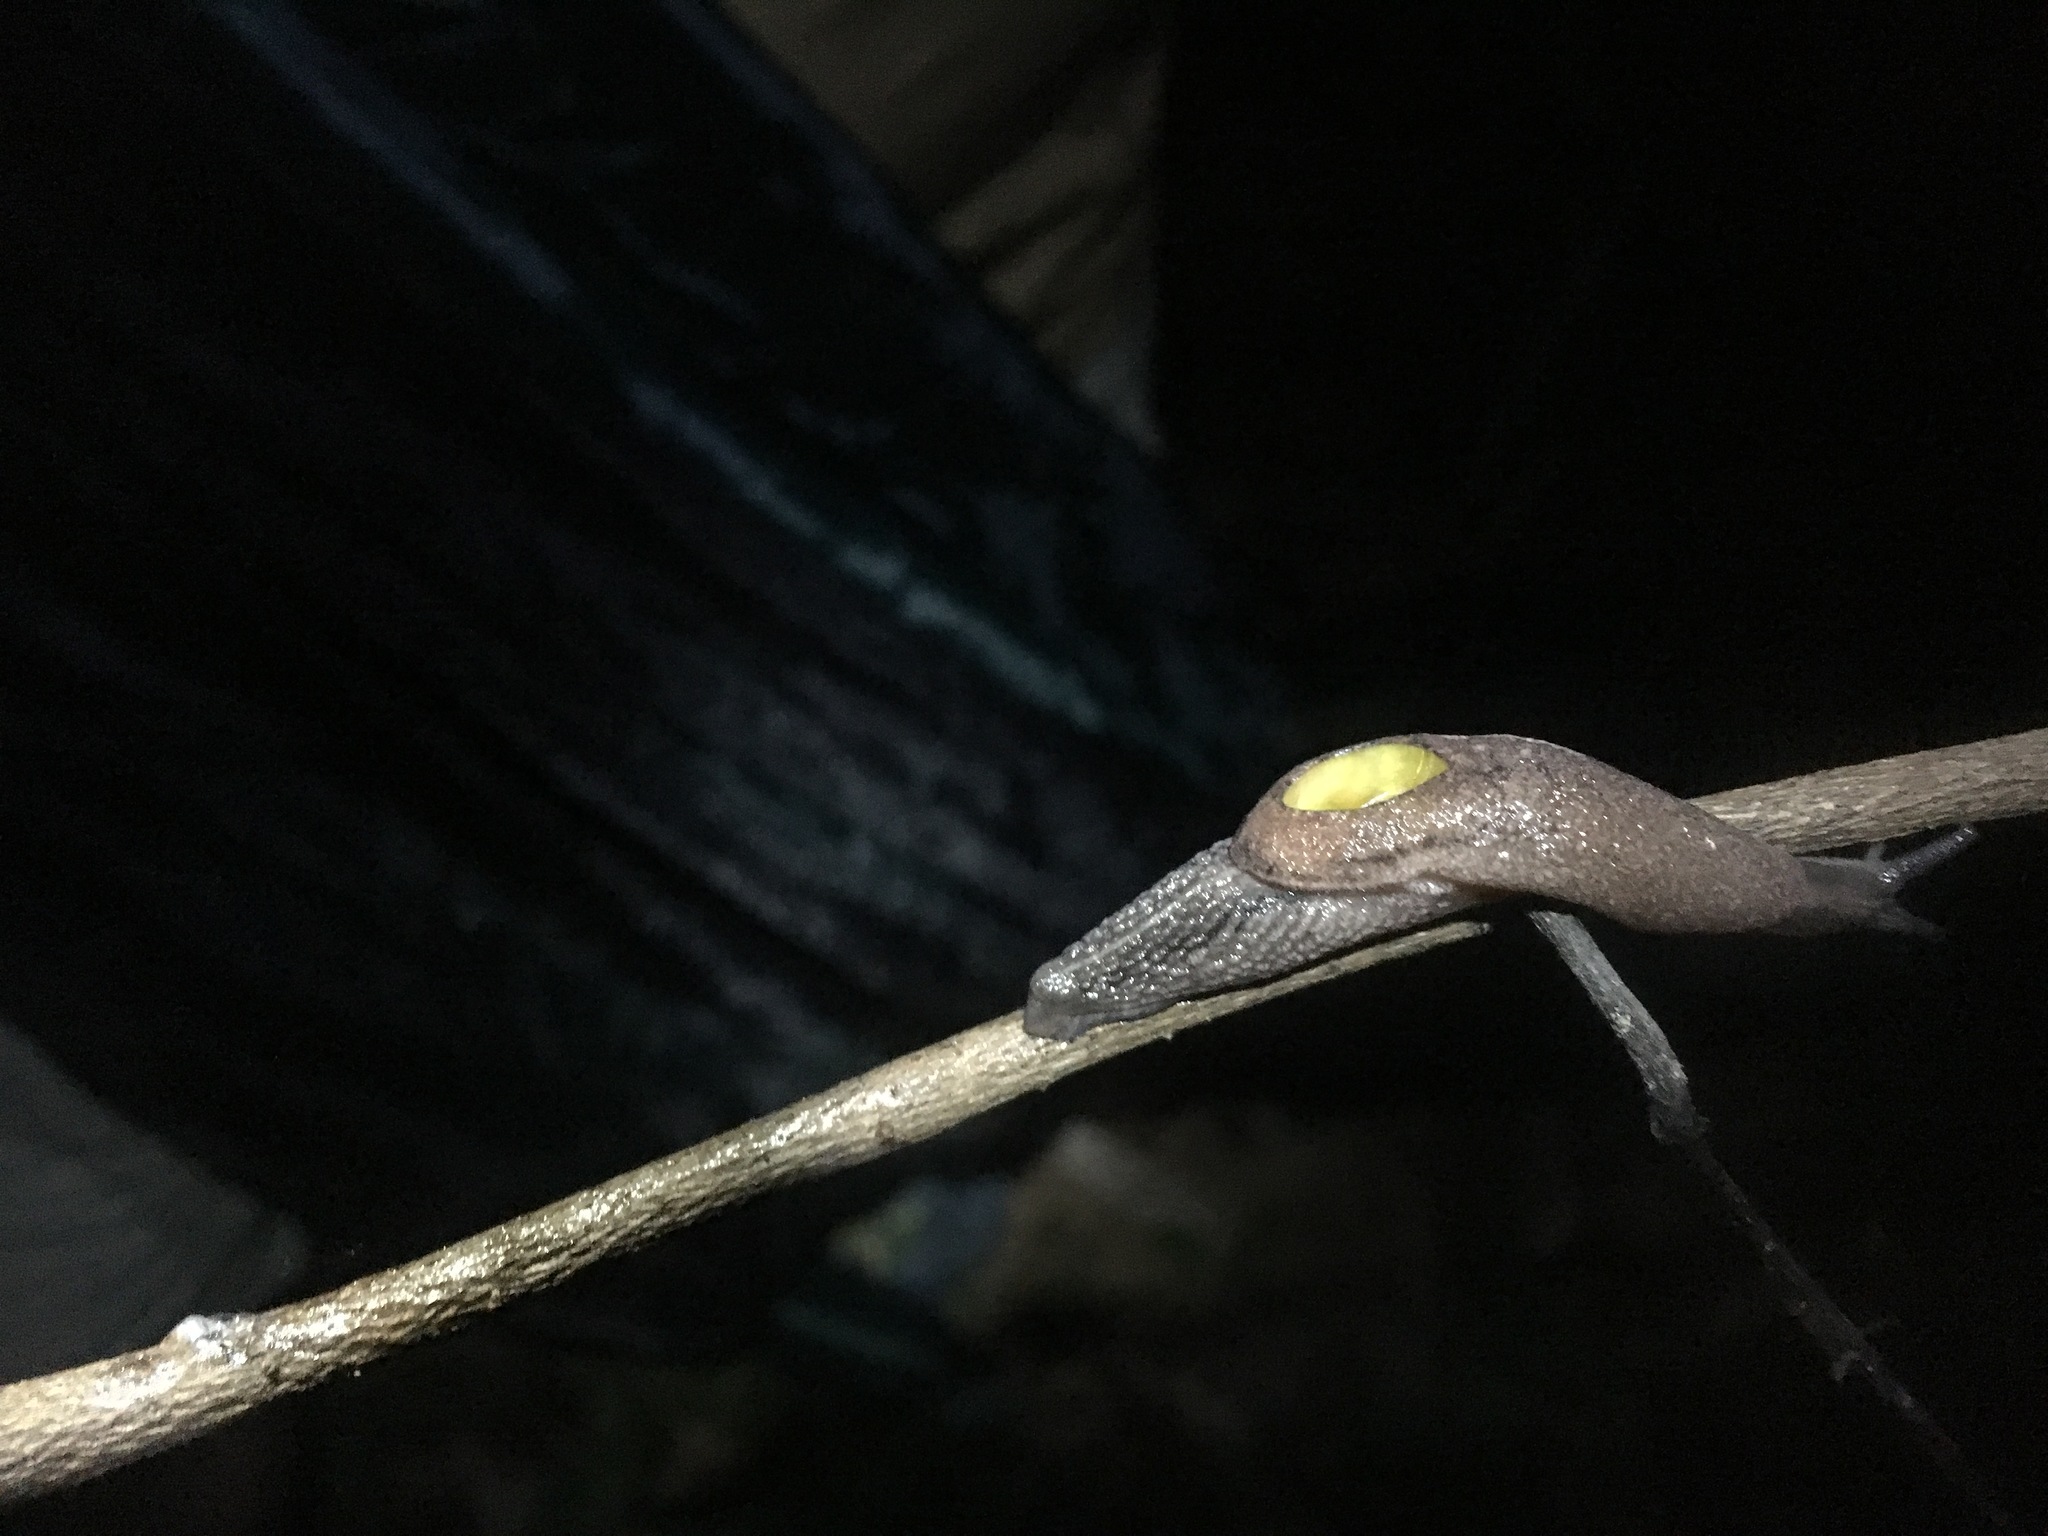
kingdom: Animalia
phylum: Mollusca
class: Gastropoda
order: Stylommatophora
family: Ariophantidae
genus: Parmarion
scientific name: Parmarion martensi
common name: Semi-slug
